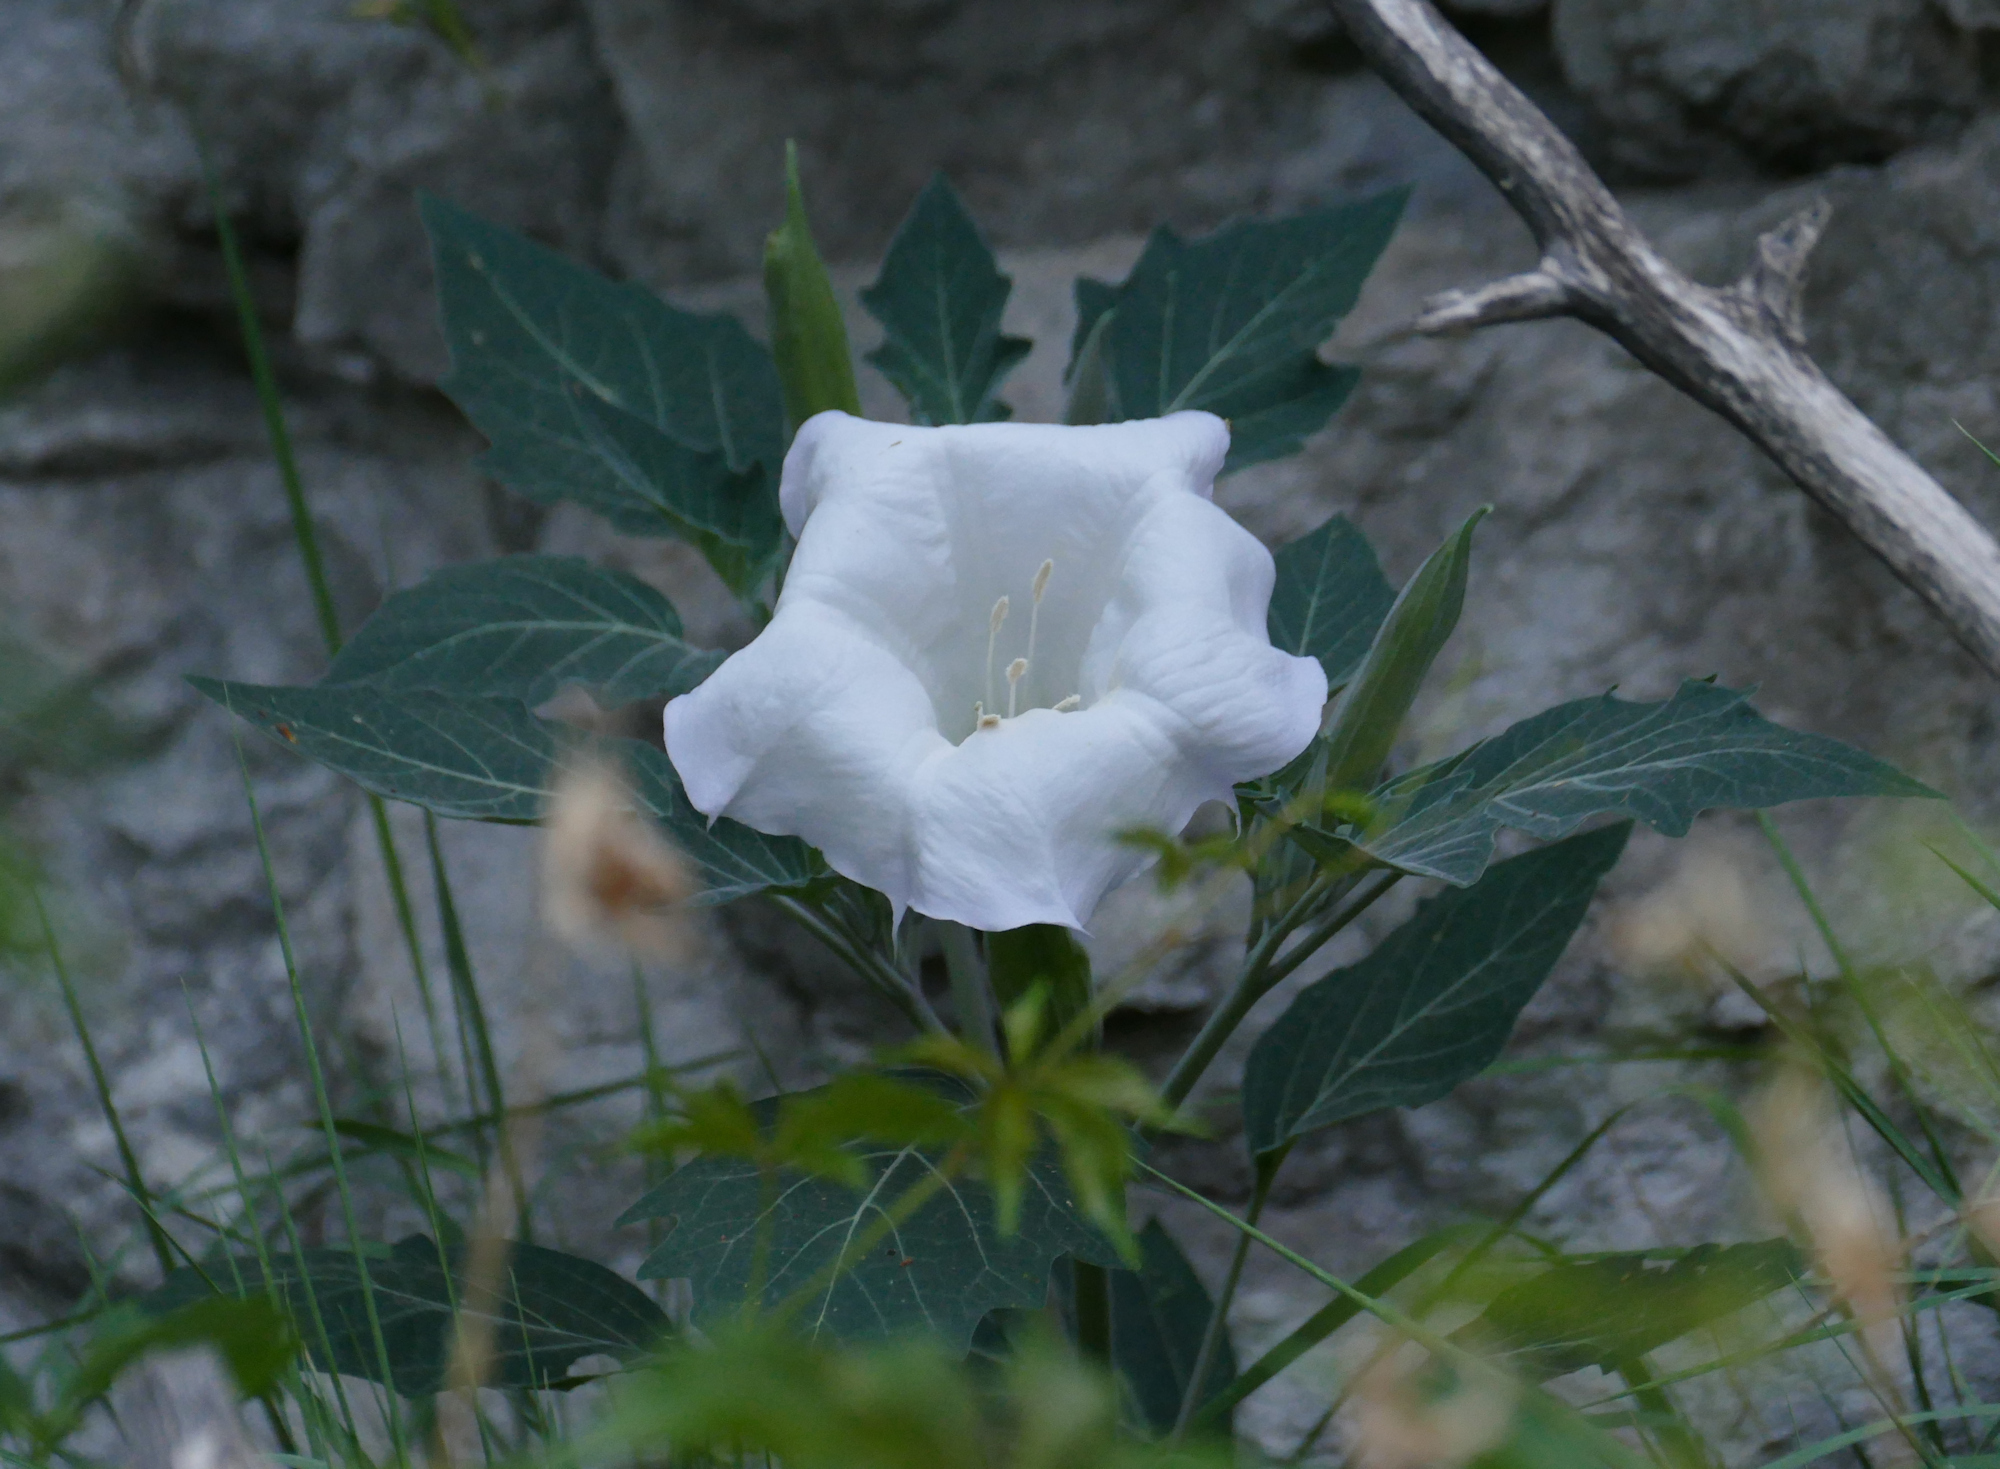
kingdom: Plantae
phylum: Tracheophyta
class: Magnoliopsida
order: Solanales
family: Solanaceae
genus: Datura
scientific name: Datura wrightii
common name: Sacred thorn-apple
